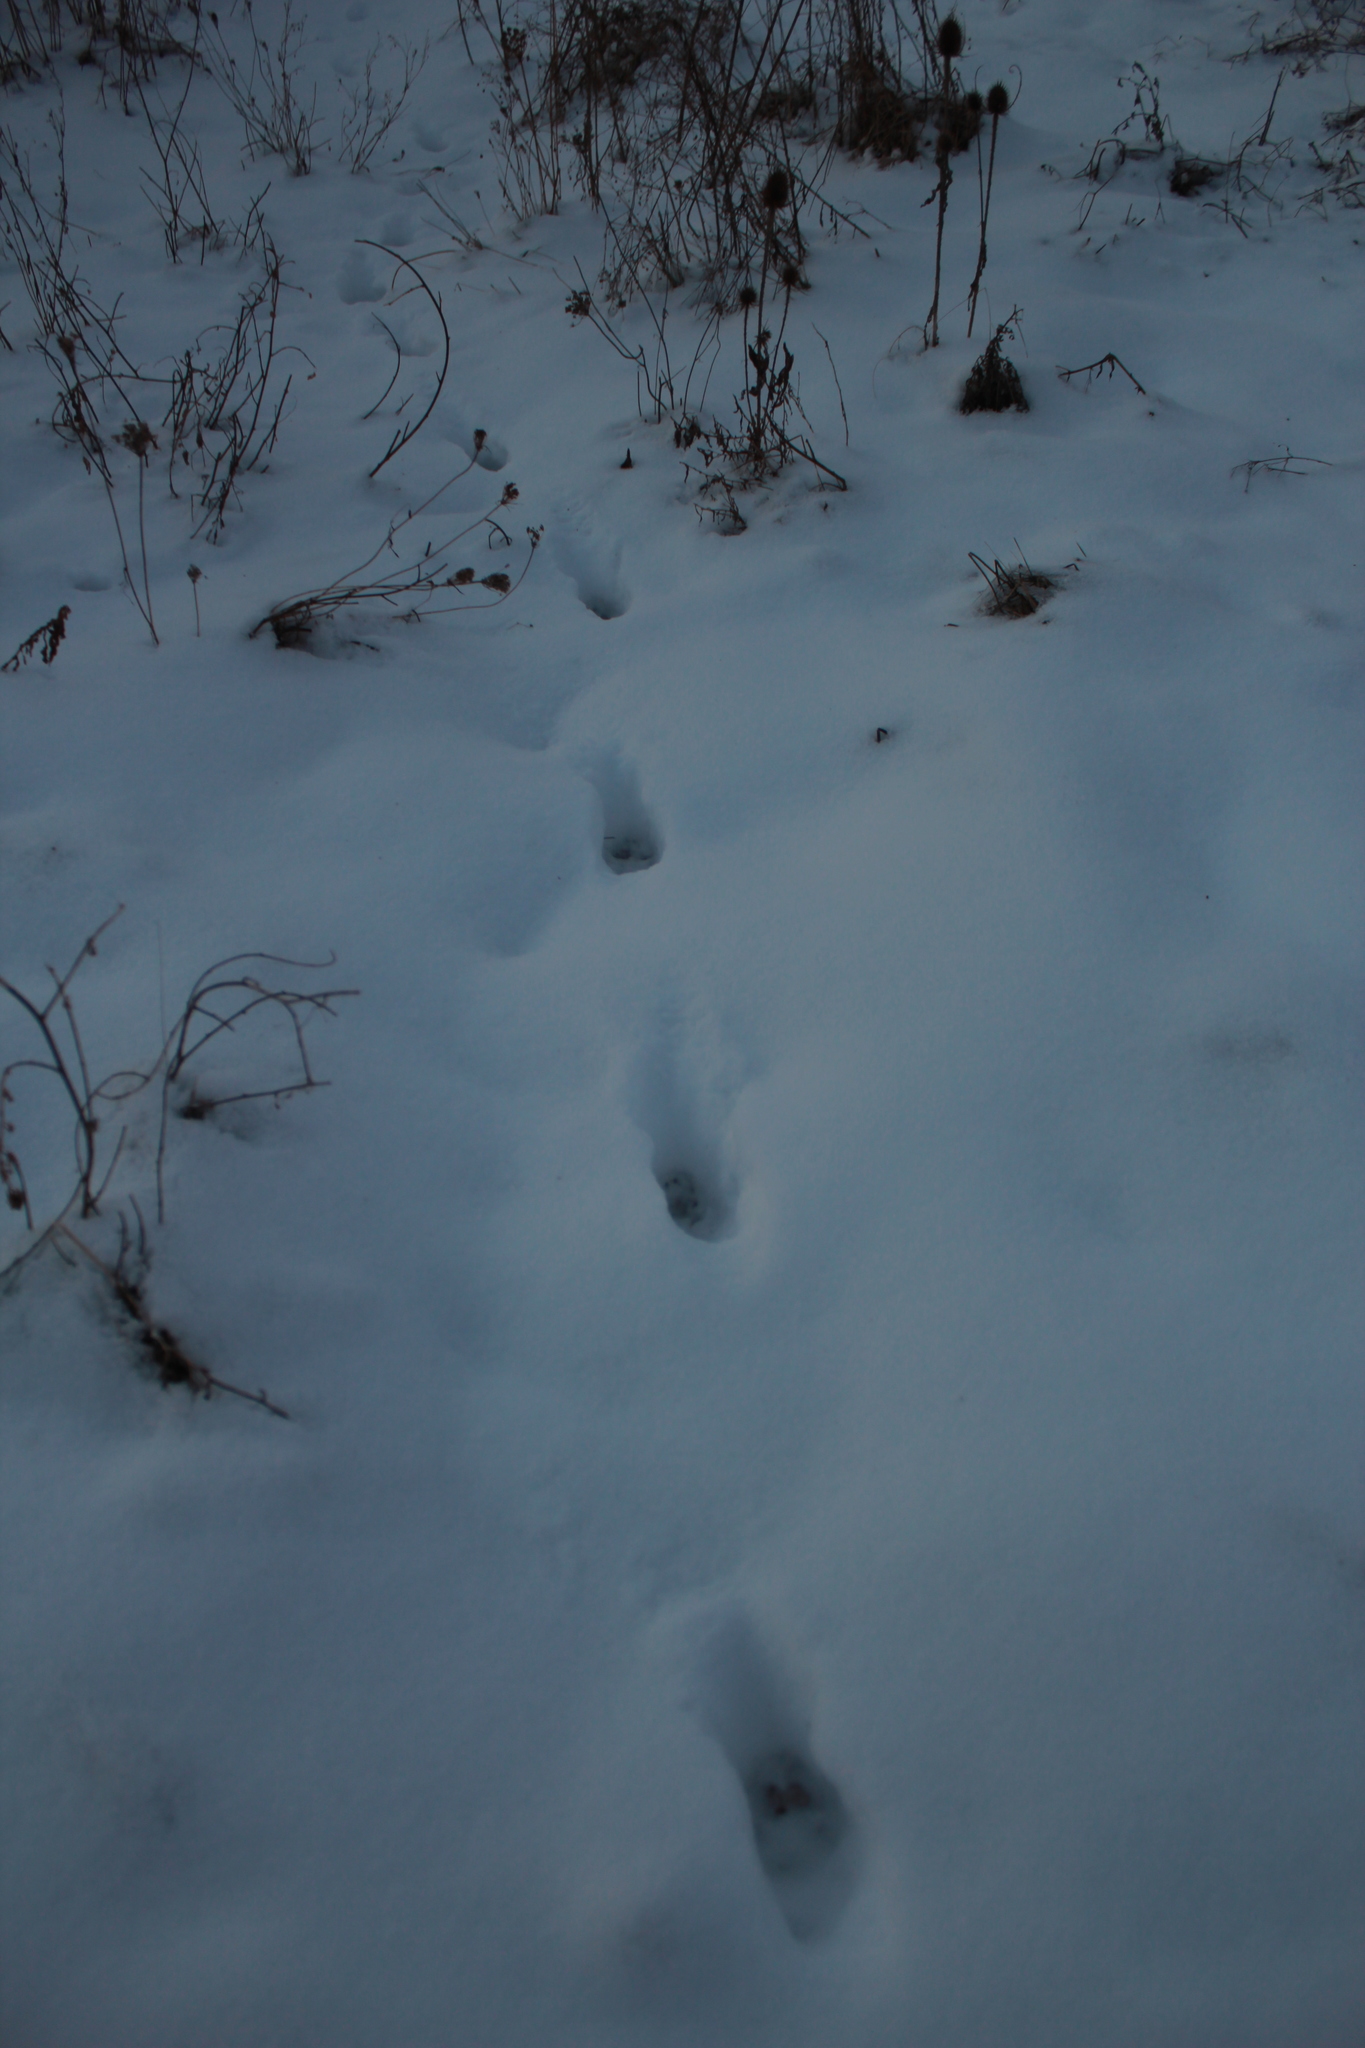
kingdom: Animalia
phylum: Chordata
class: Mammalia
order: Carnivora
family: Canidae
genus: Vulpes
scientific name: Vulpes vulpes
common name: Red fox
